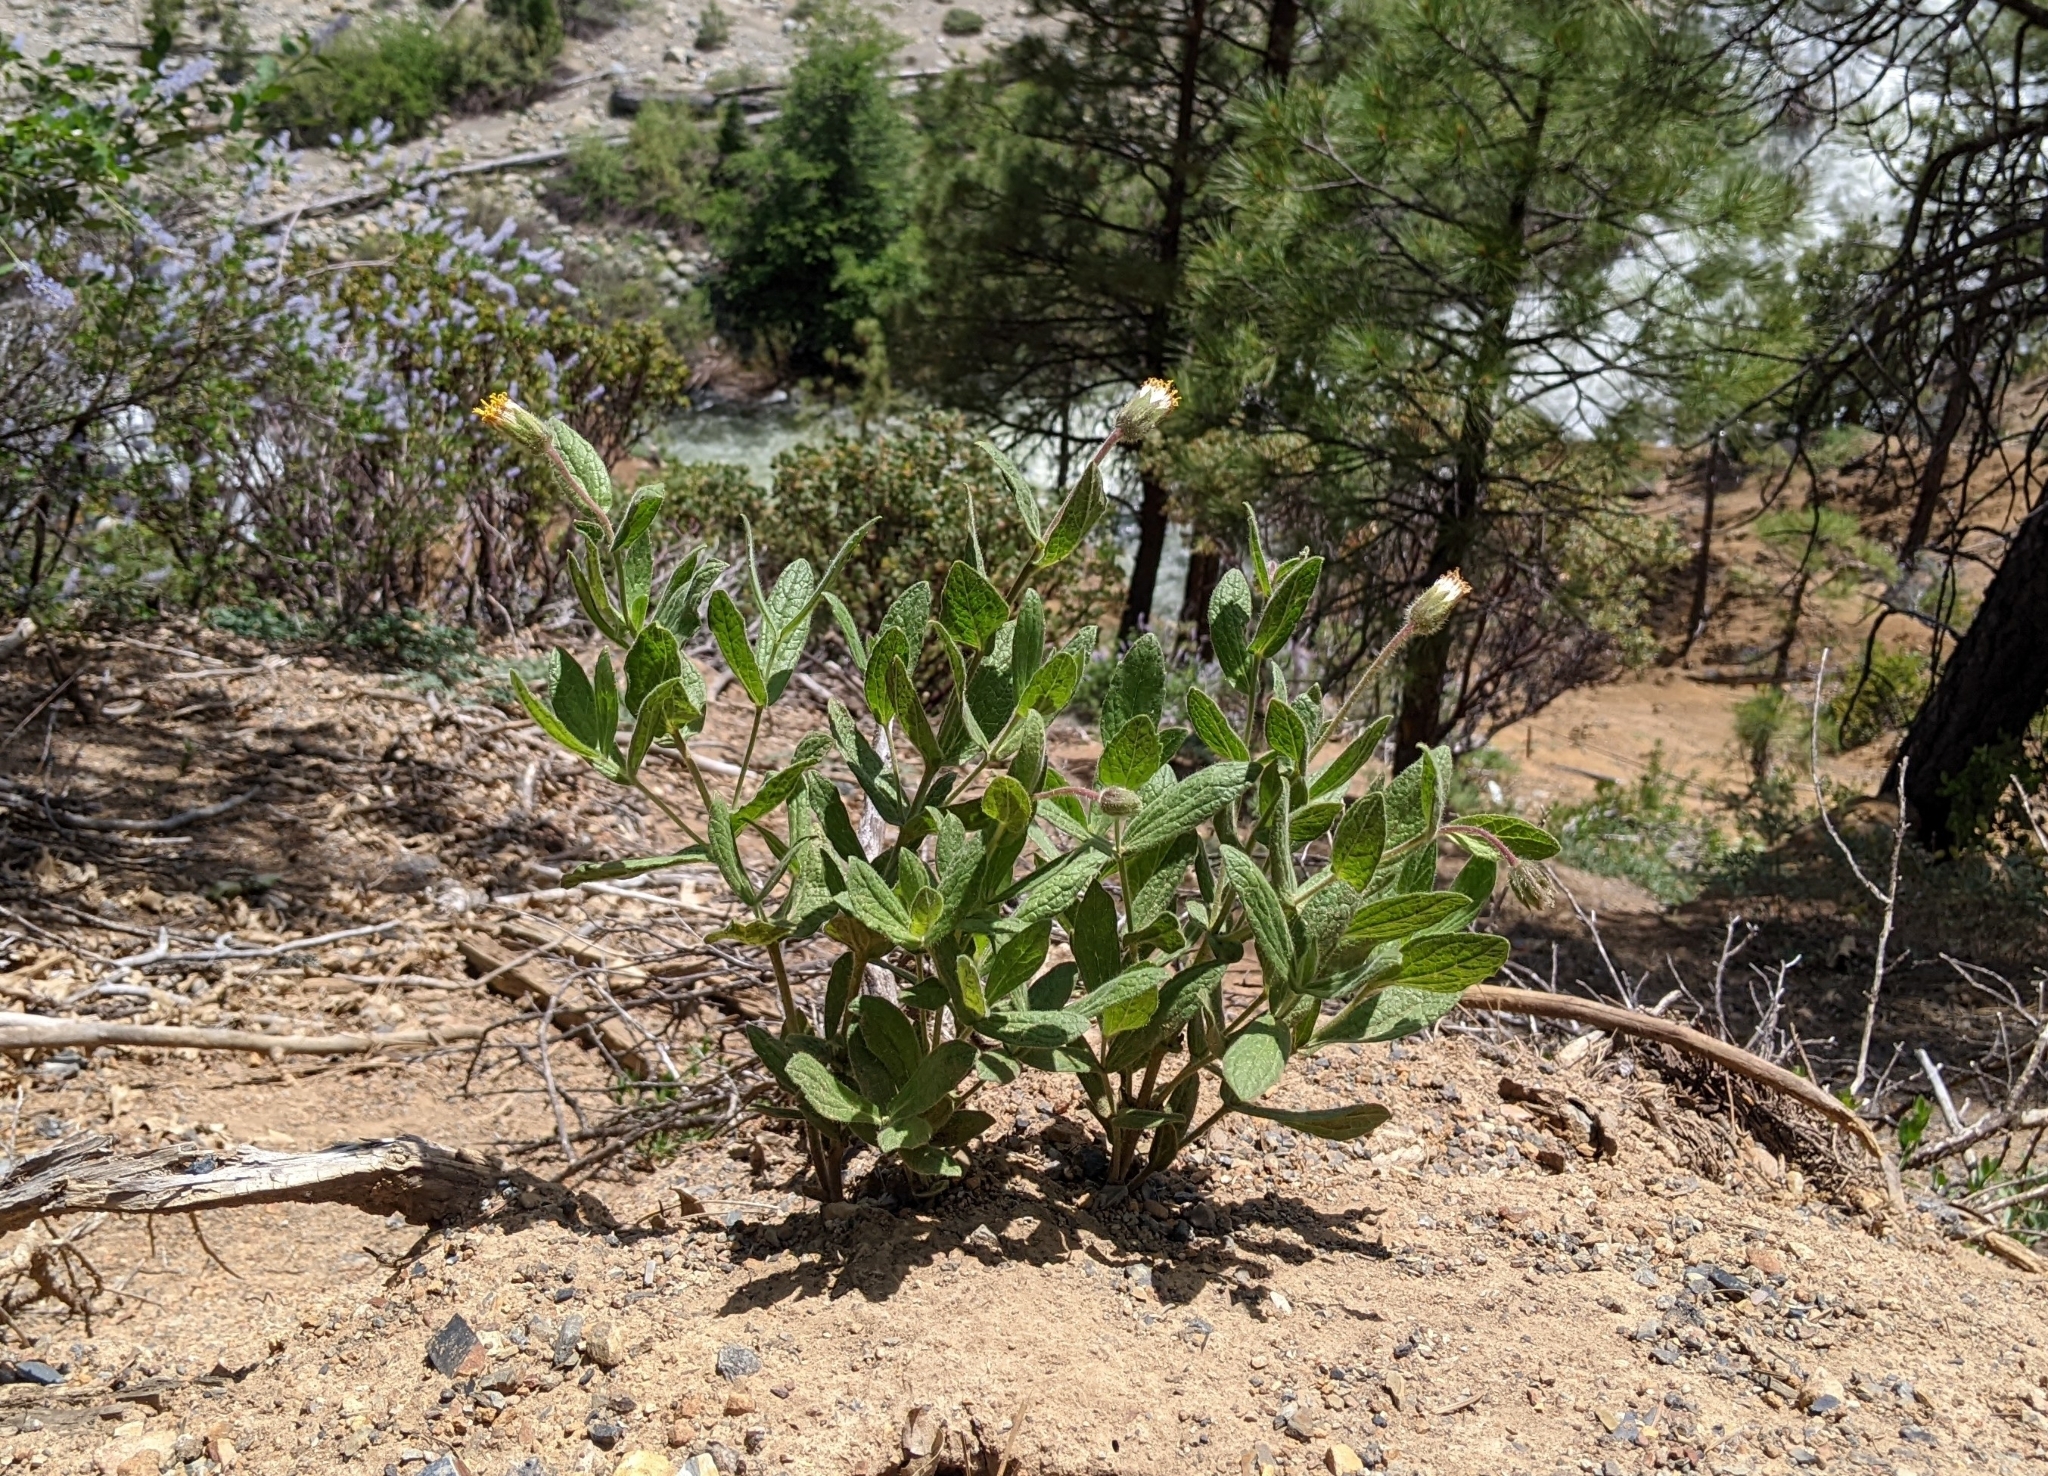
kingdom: Plantae
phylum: Tracheophyta
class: Magnoliopsida
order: Asterales
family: Asteraceae
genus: Arnica
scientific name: Arnica venosa
